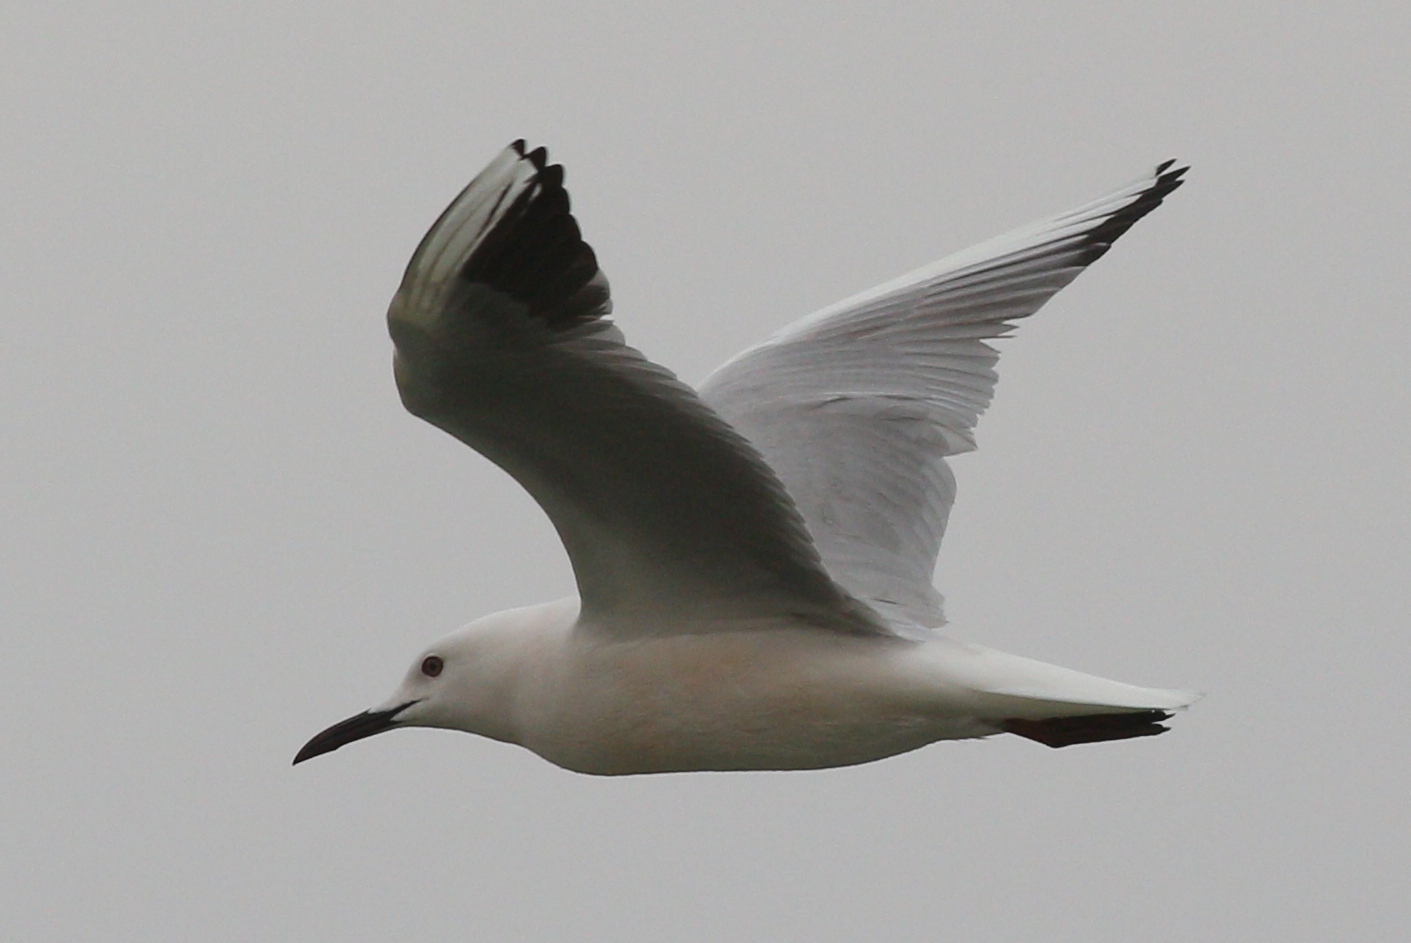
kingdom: Animalia
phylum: Chordata
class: Aves
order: Charadriiformes
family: Laridae
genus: Chroicocephalus
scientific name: Chroicocephalus genei
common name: Slender-billed gull
